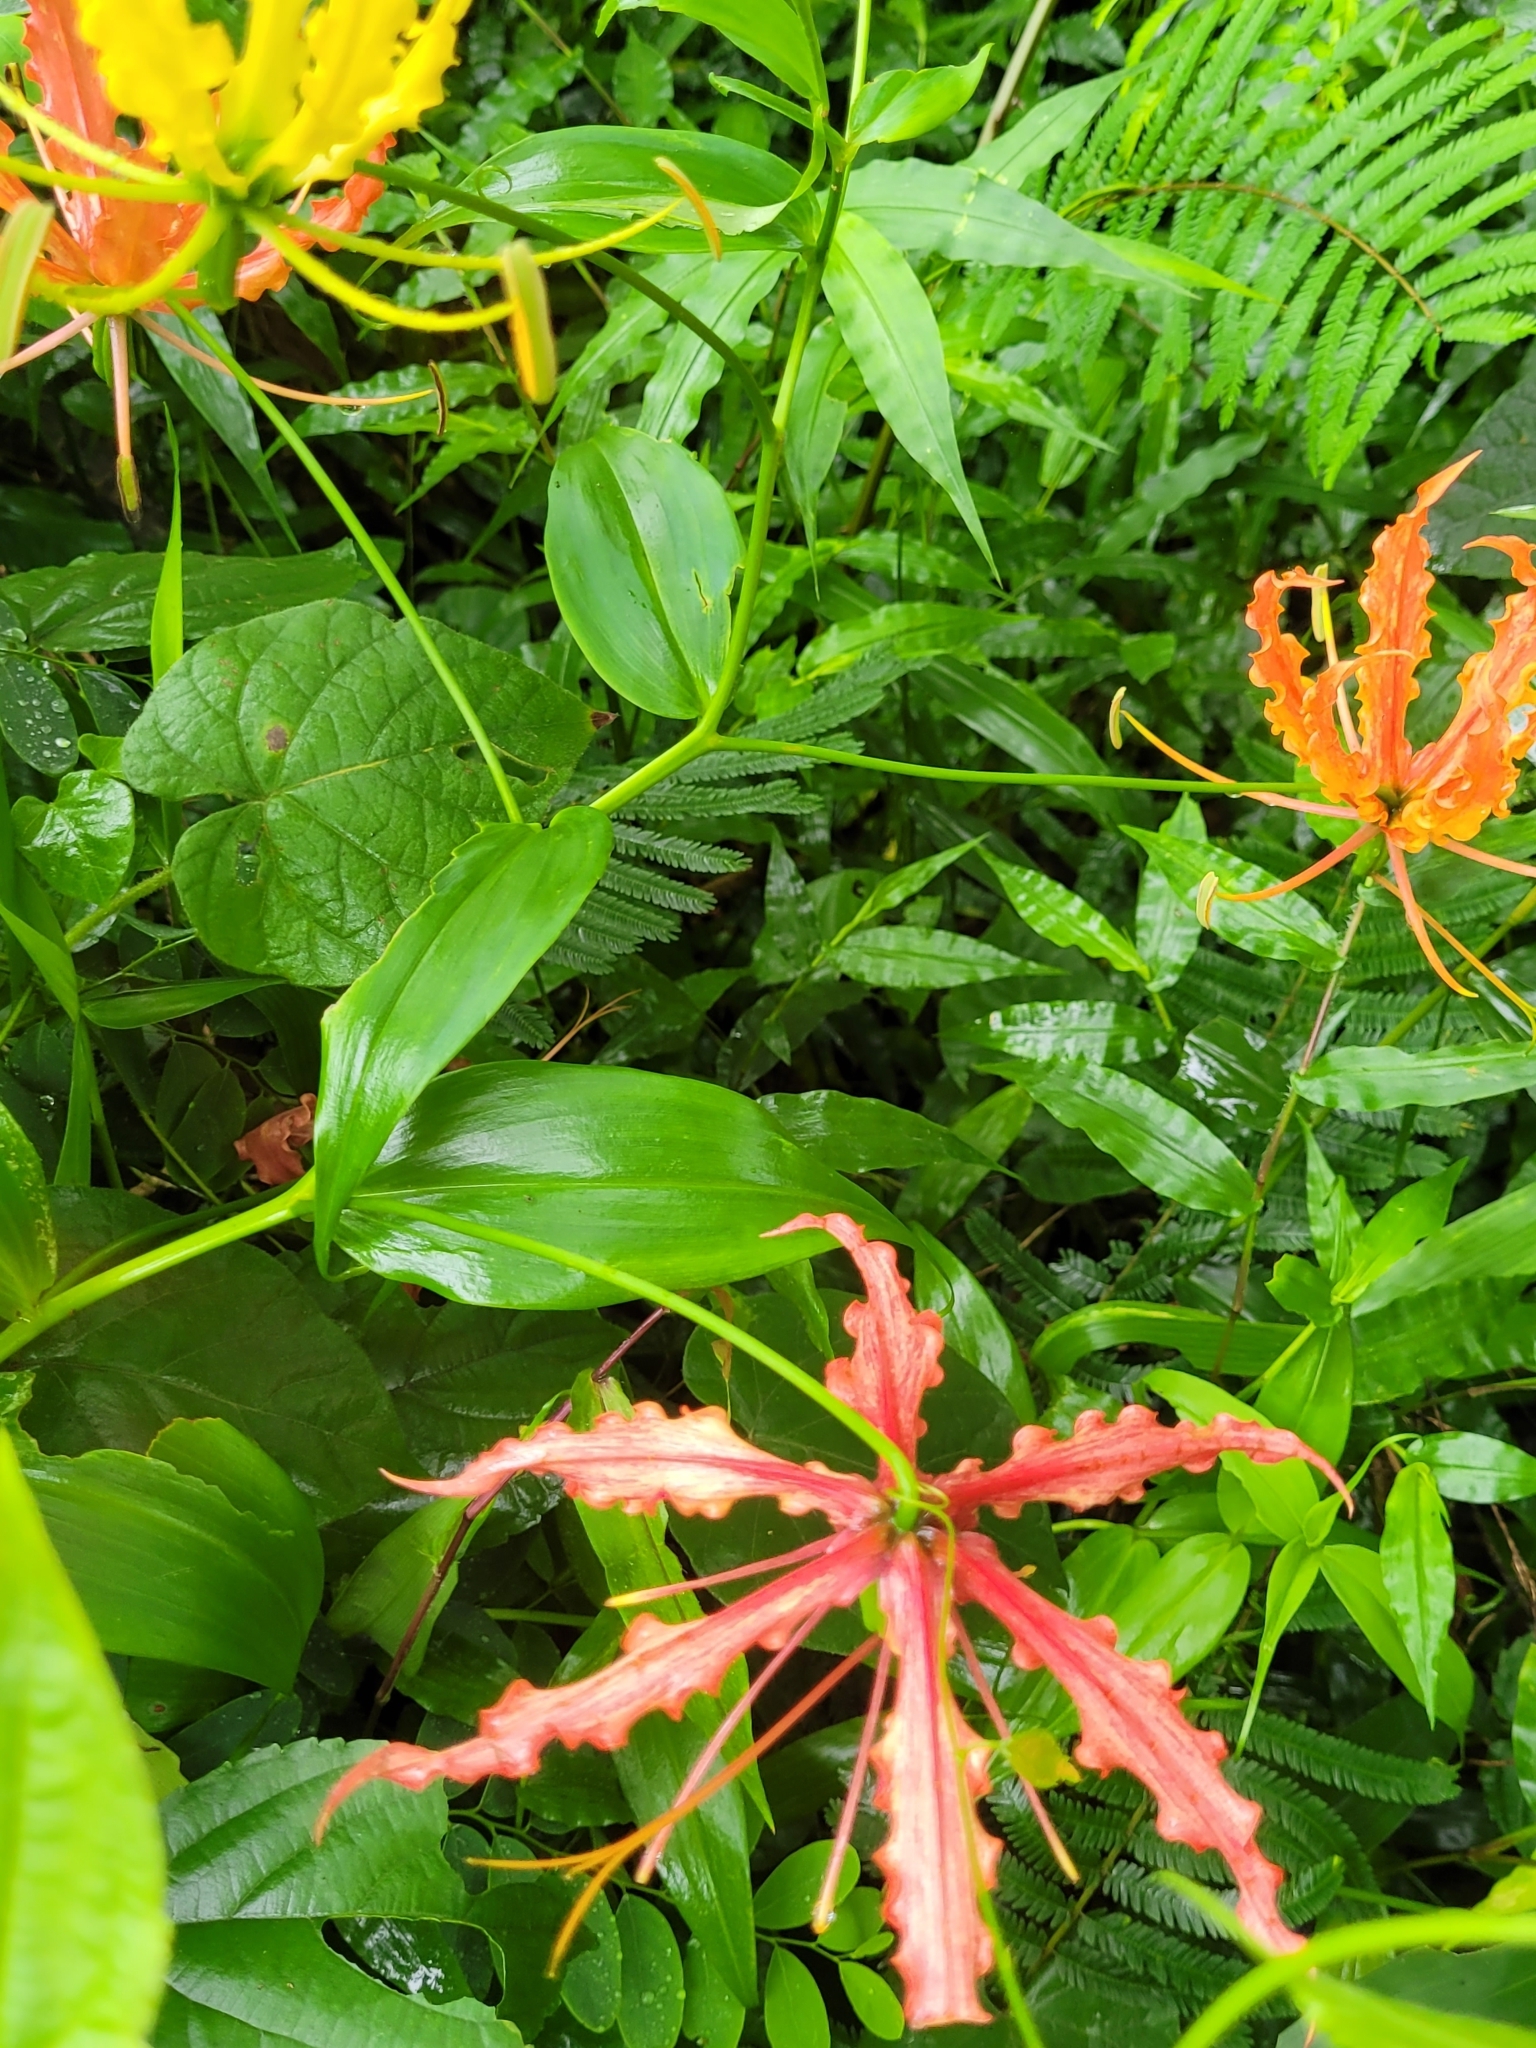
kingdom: Plantae
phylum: Tracheophyta
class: Liliopsida
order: Liliales
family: Colchicaceae
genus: Gloriosa
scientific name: Gloriosa superba
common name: Flame lily
